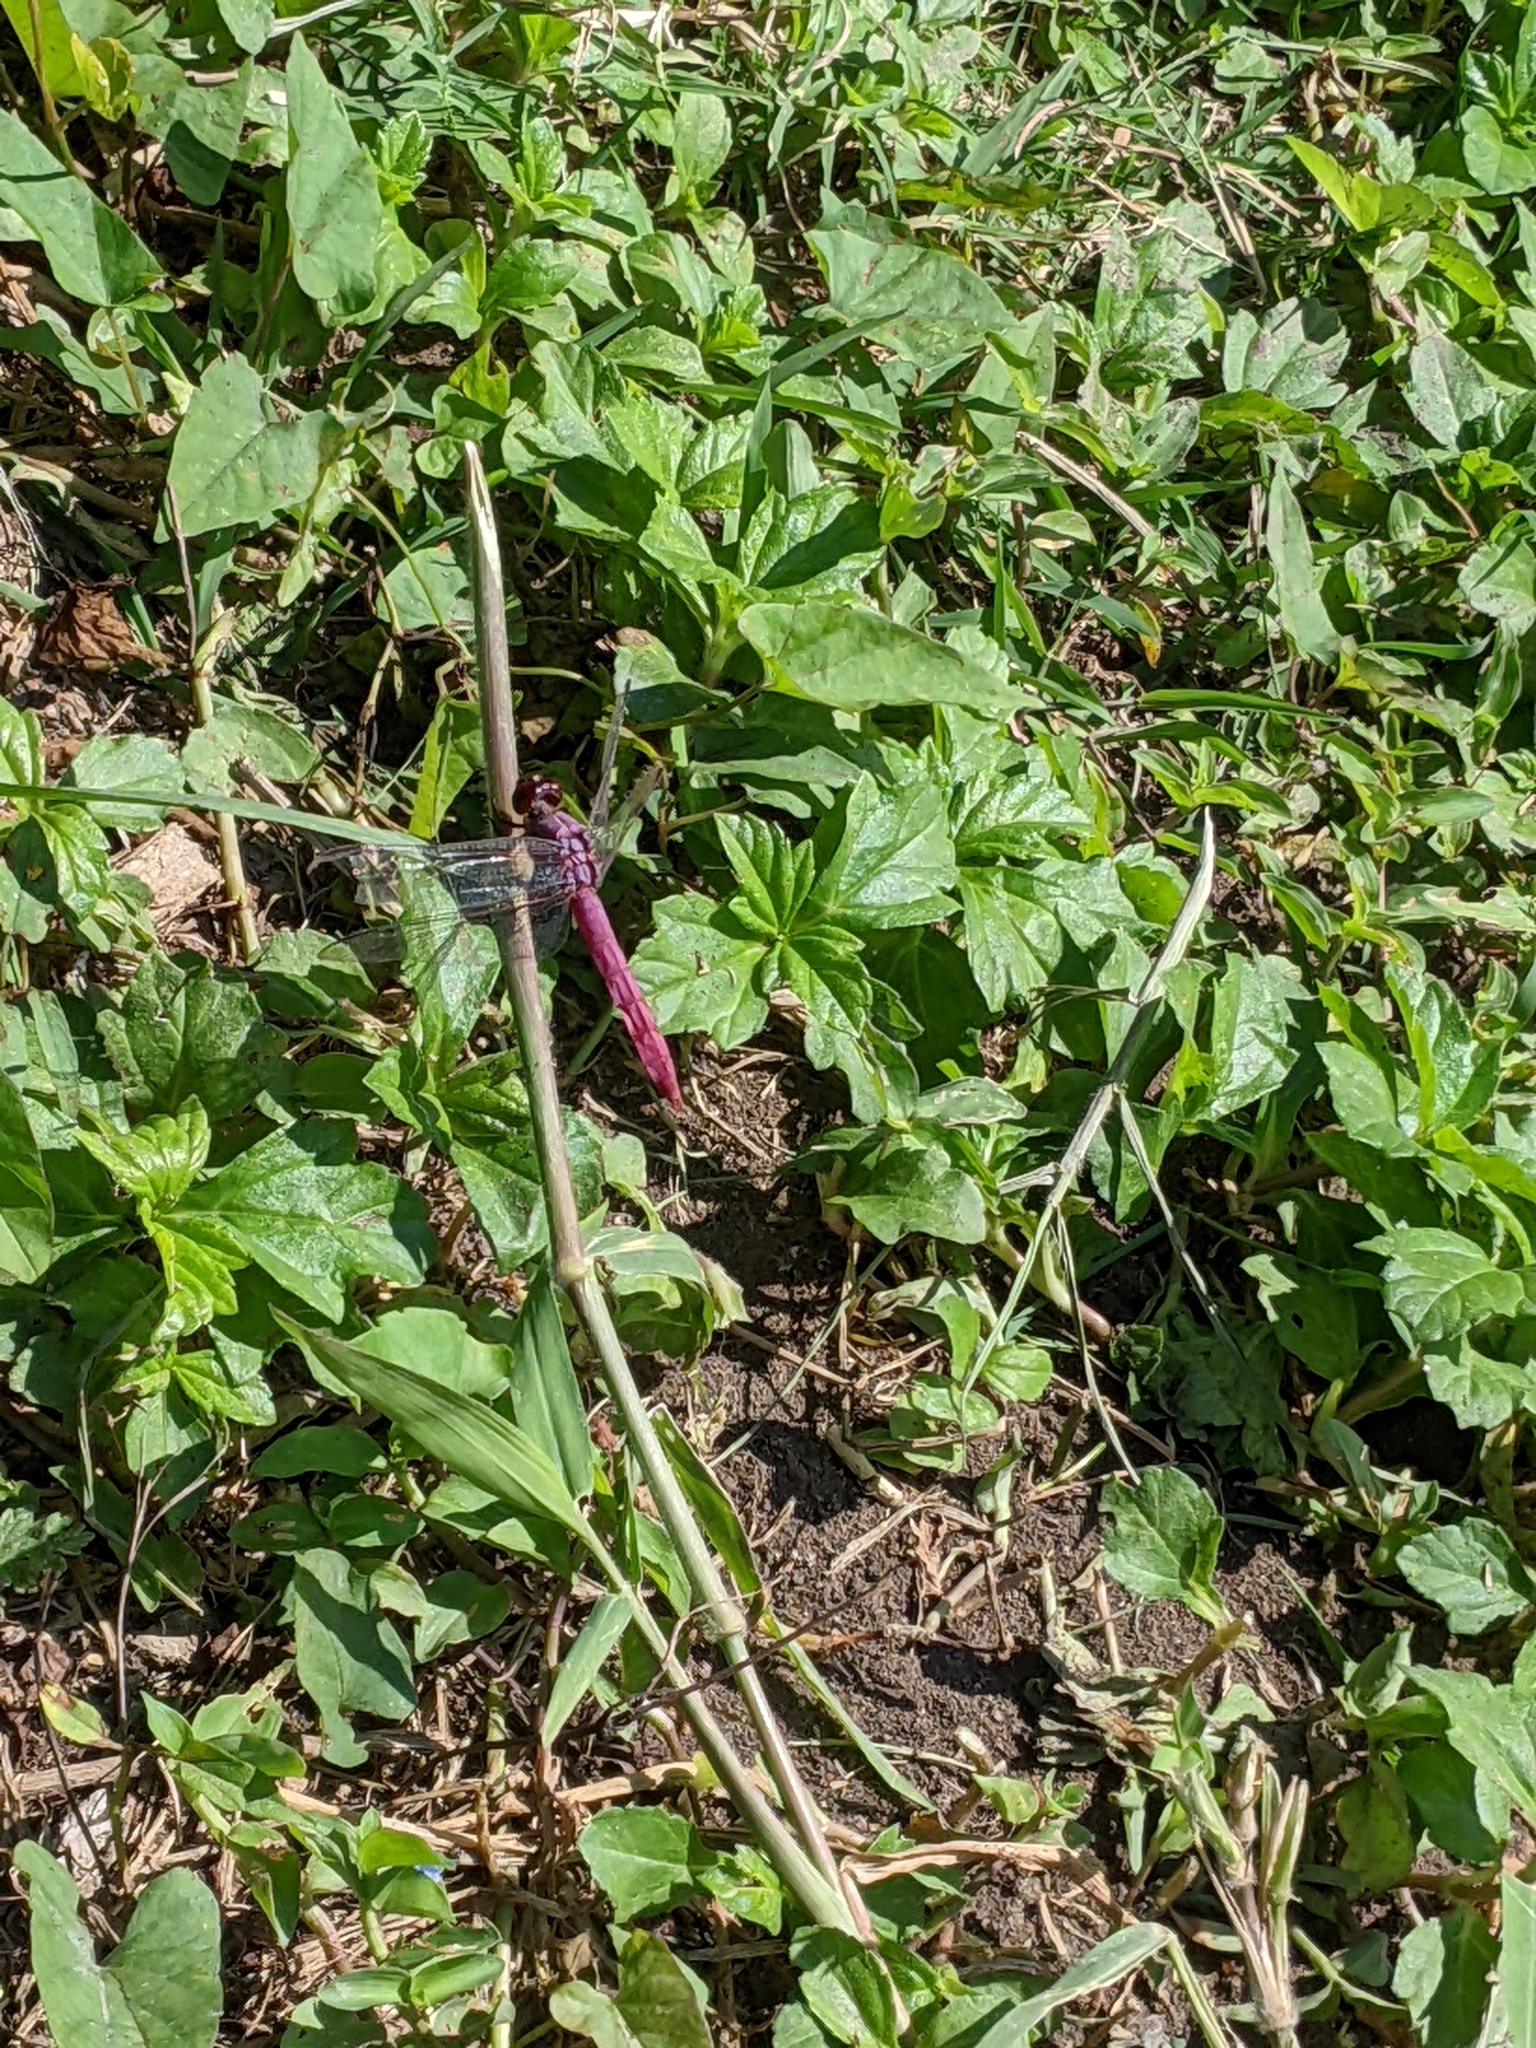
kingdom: Animalia
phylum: Arthropoda
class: Insecta
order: Odonata
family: Libellulidae
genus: Orthemis
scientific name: Orthemis ferruginea
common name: Roseate skimmer
